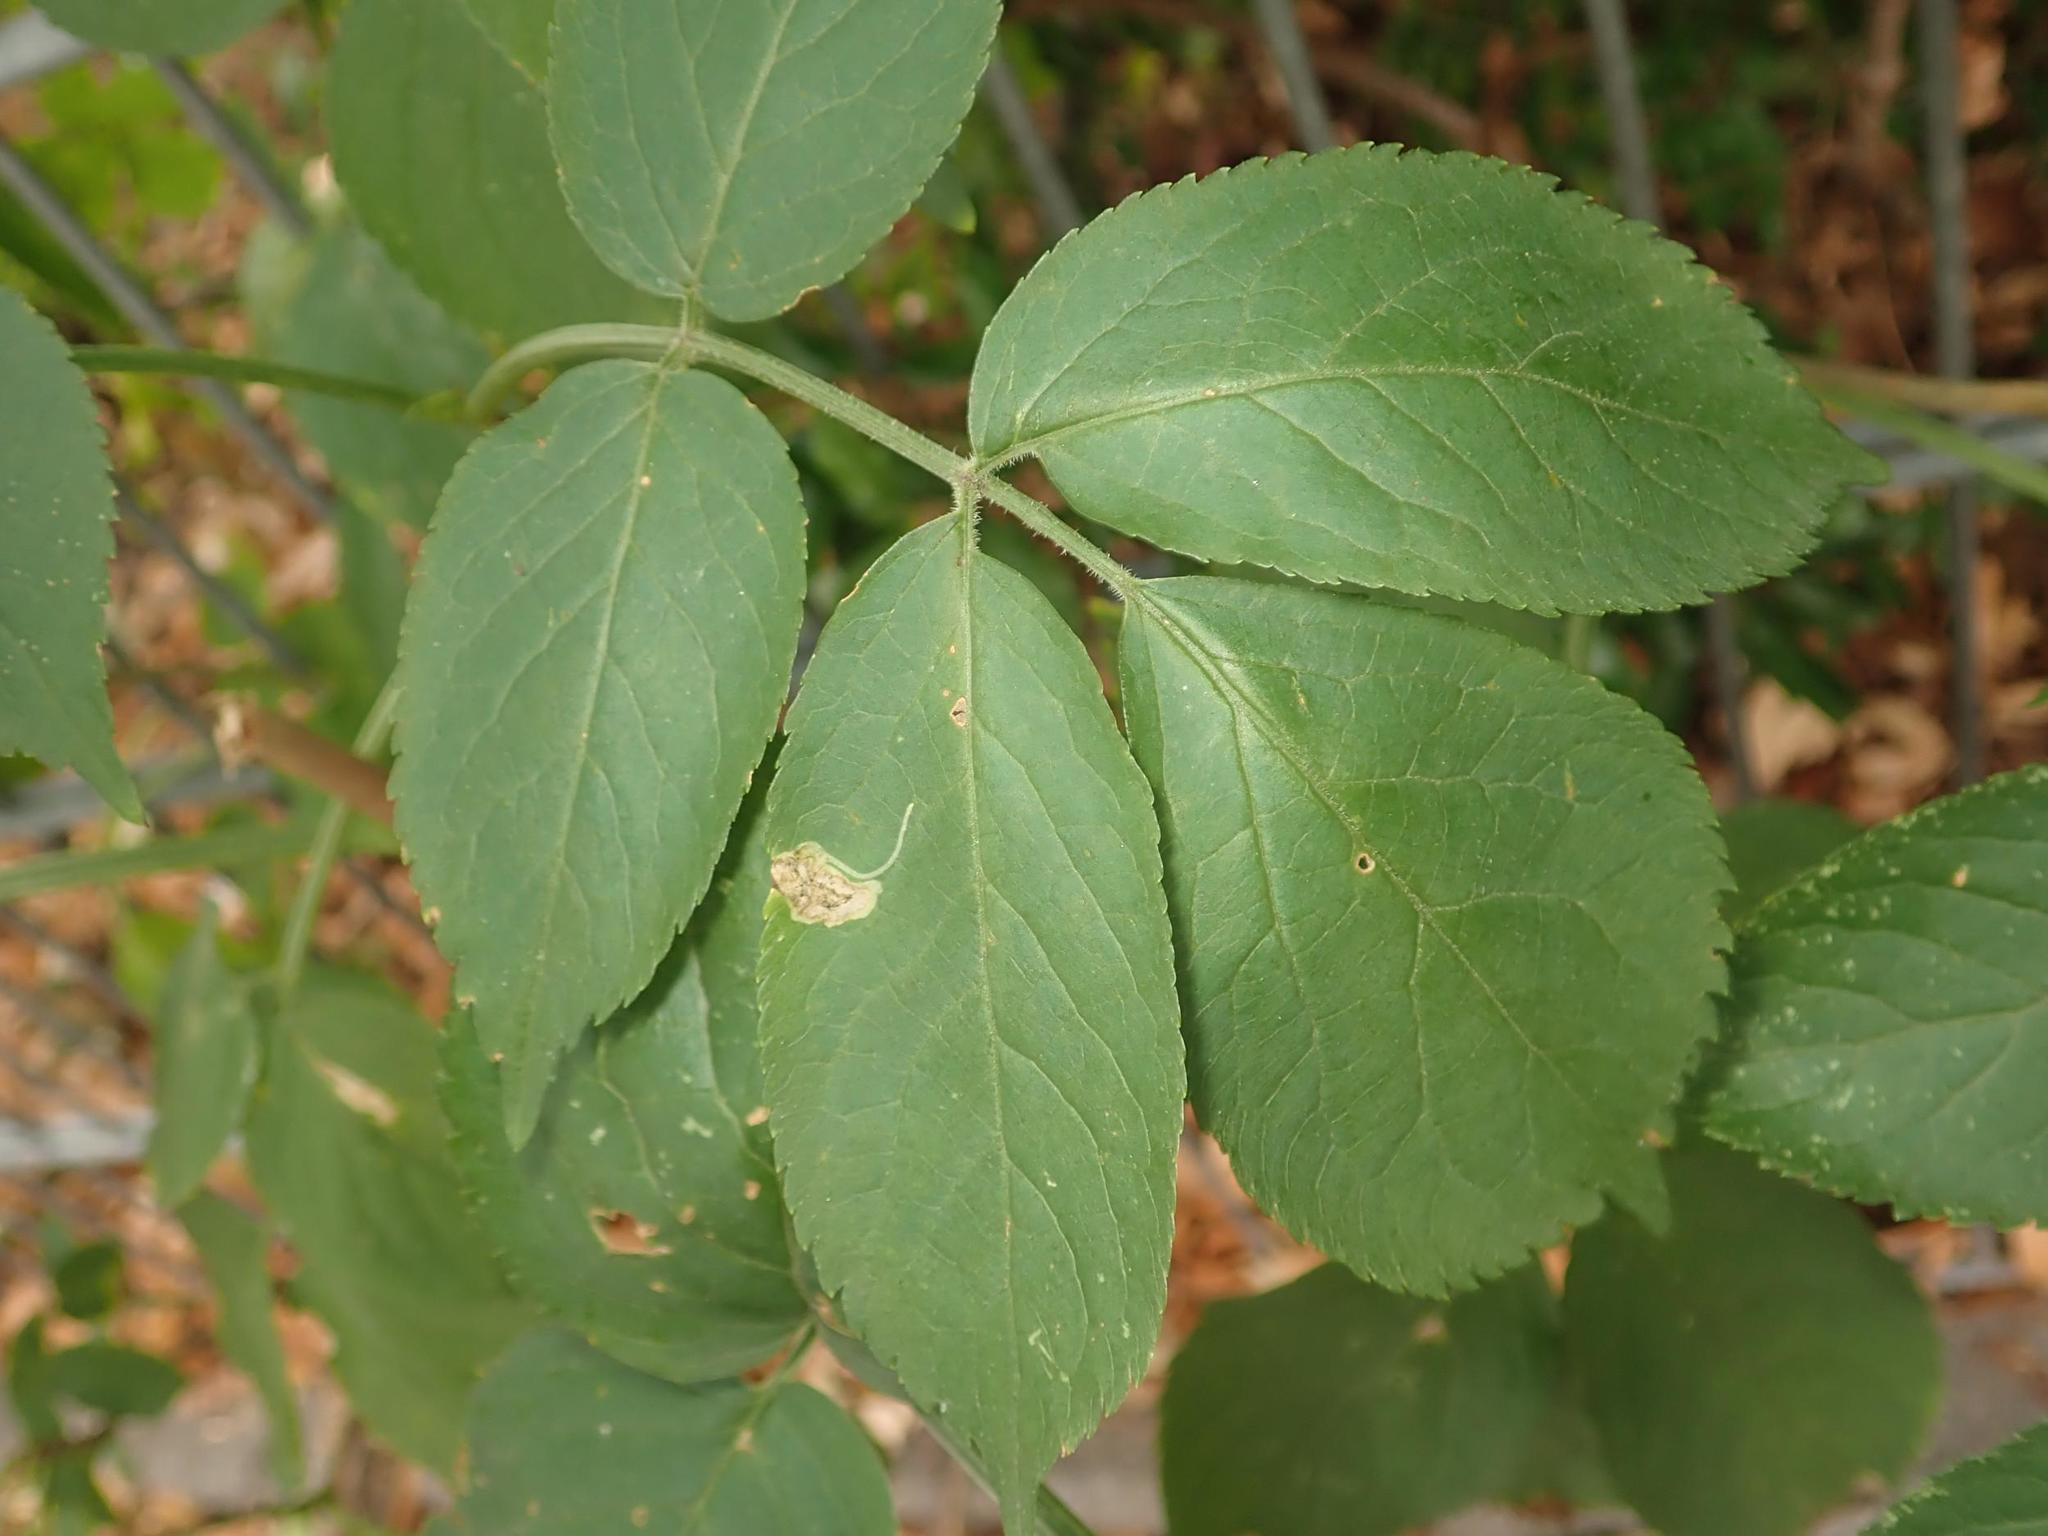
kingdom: Plantae
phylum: Tracheophyta
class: Magnoliopsida
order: Dipsacales
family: Viburnaceae
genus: Sambucus
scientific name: Sambucus nigra
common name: Elder
